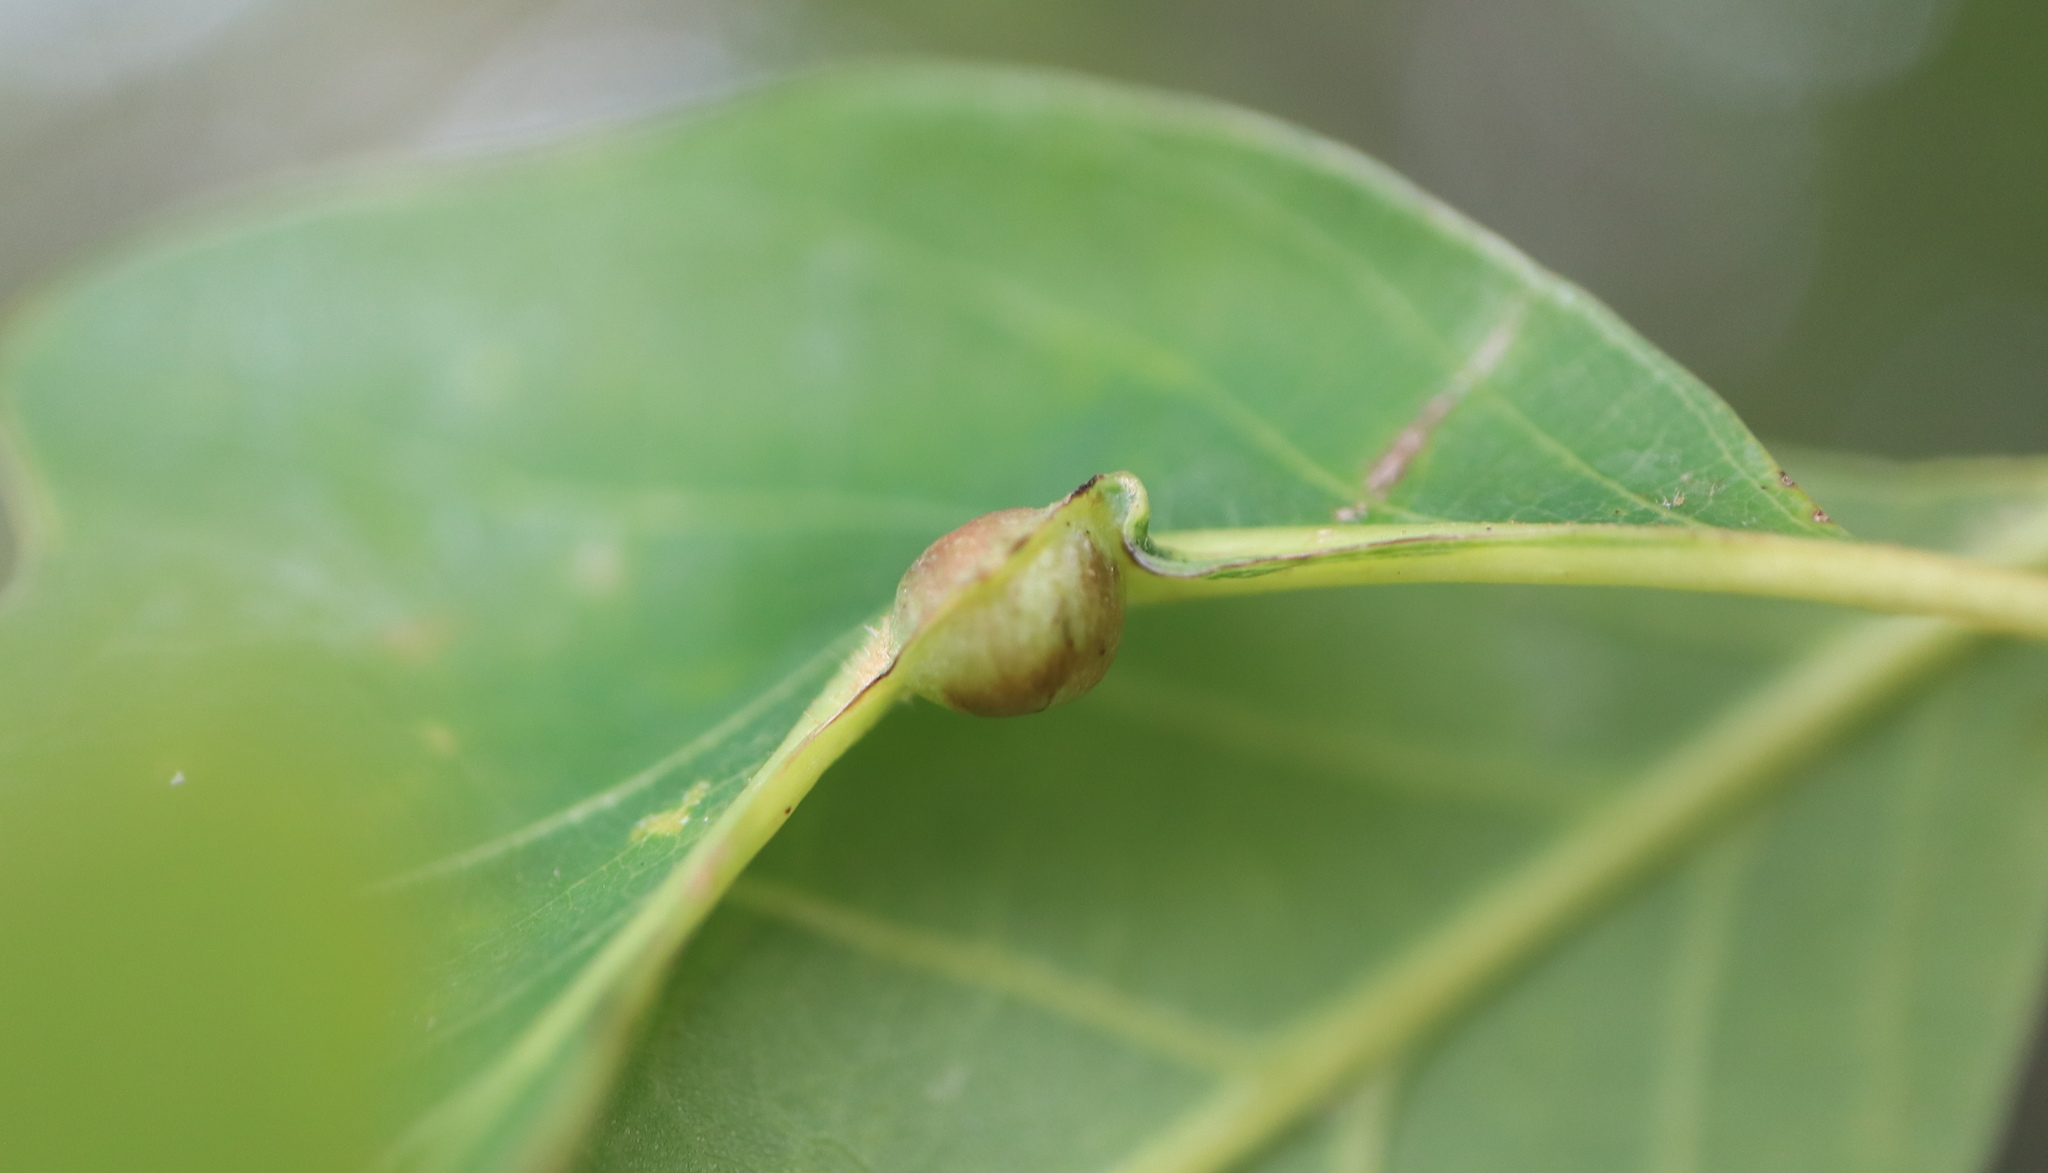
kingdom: Animalia
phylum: Arthropoda
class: Insecta
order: Hymenoptera
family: Cynipidae
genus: Andricus
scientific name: Andricus
